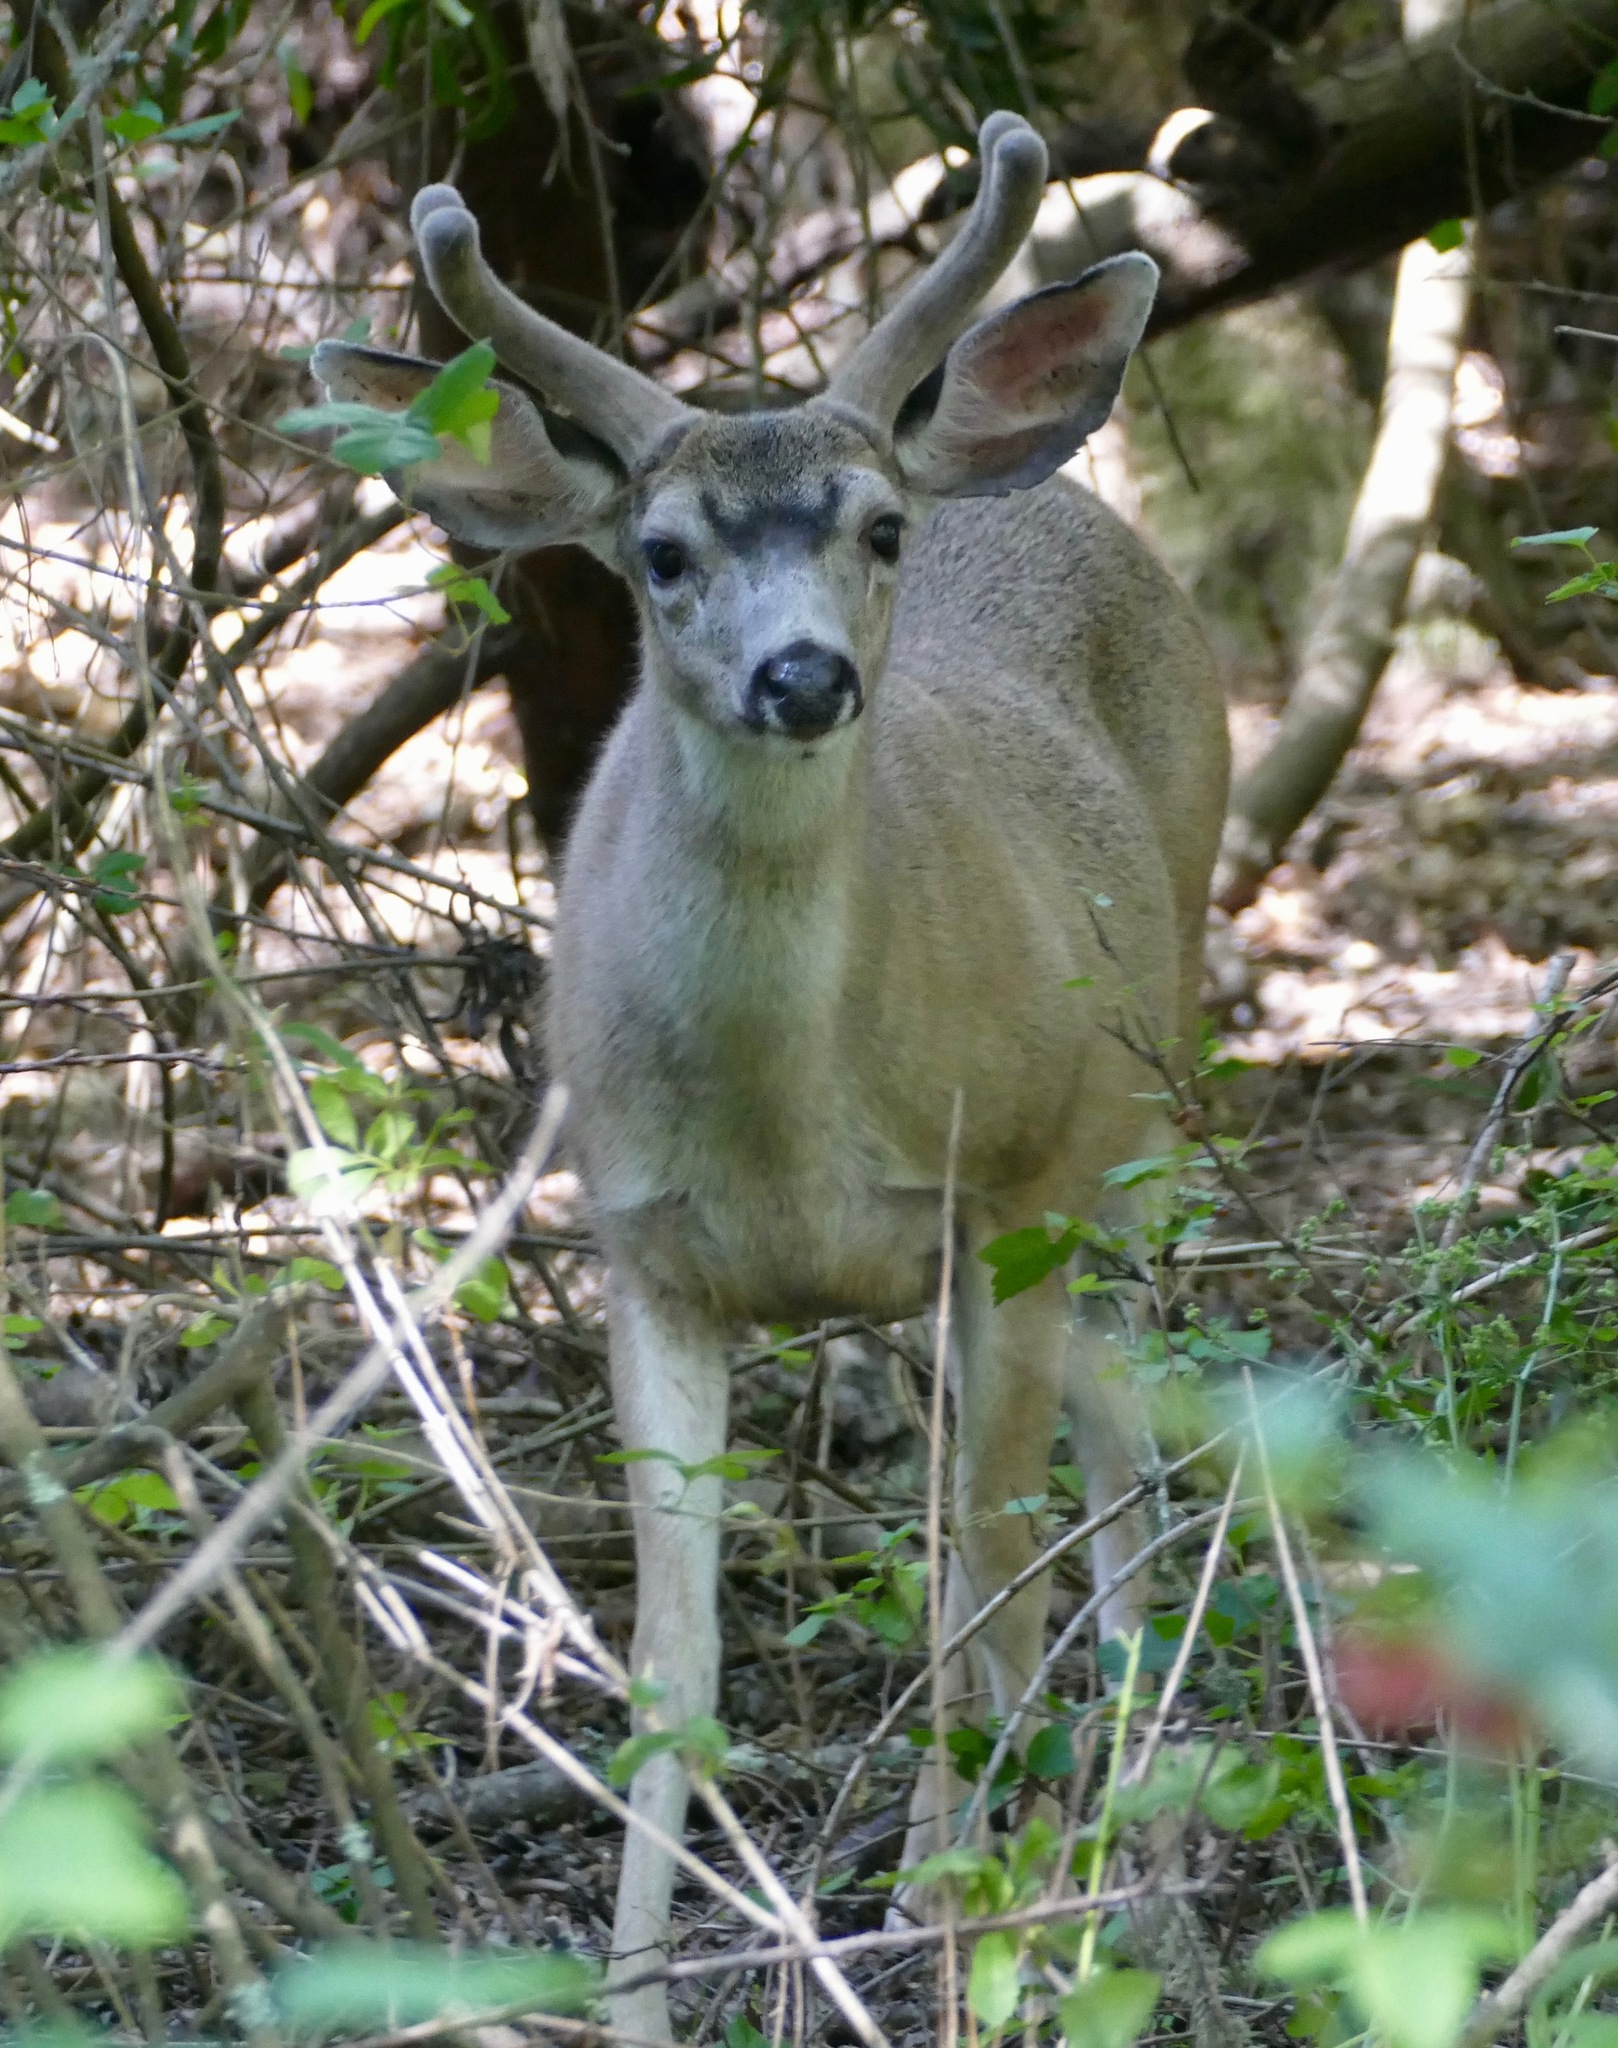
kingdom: Animalia
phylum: Chordata
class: Mammalia
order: Artiodactyla
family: Cervidae
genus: Odocoileus
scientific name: Odocoileus hemionus
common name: Mule deer
